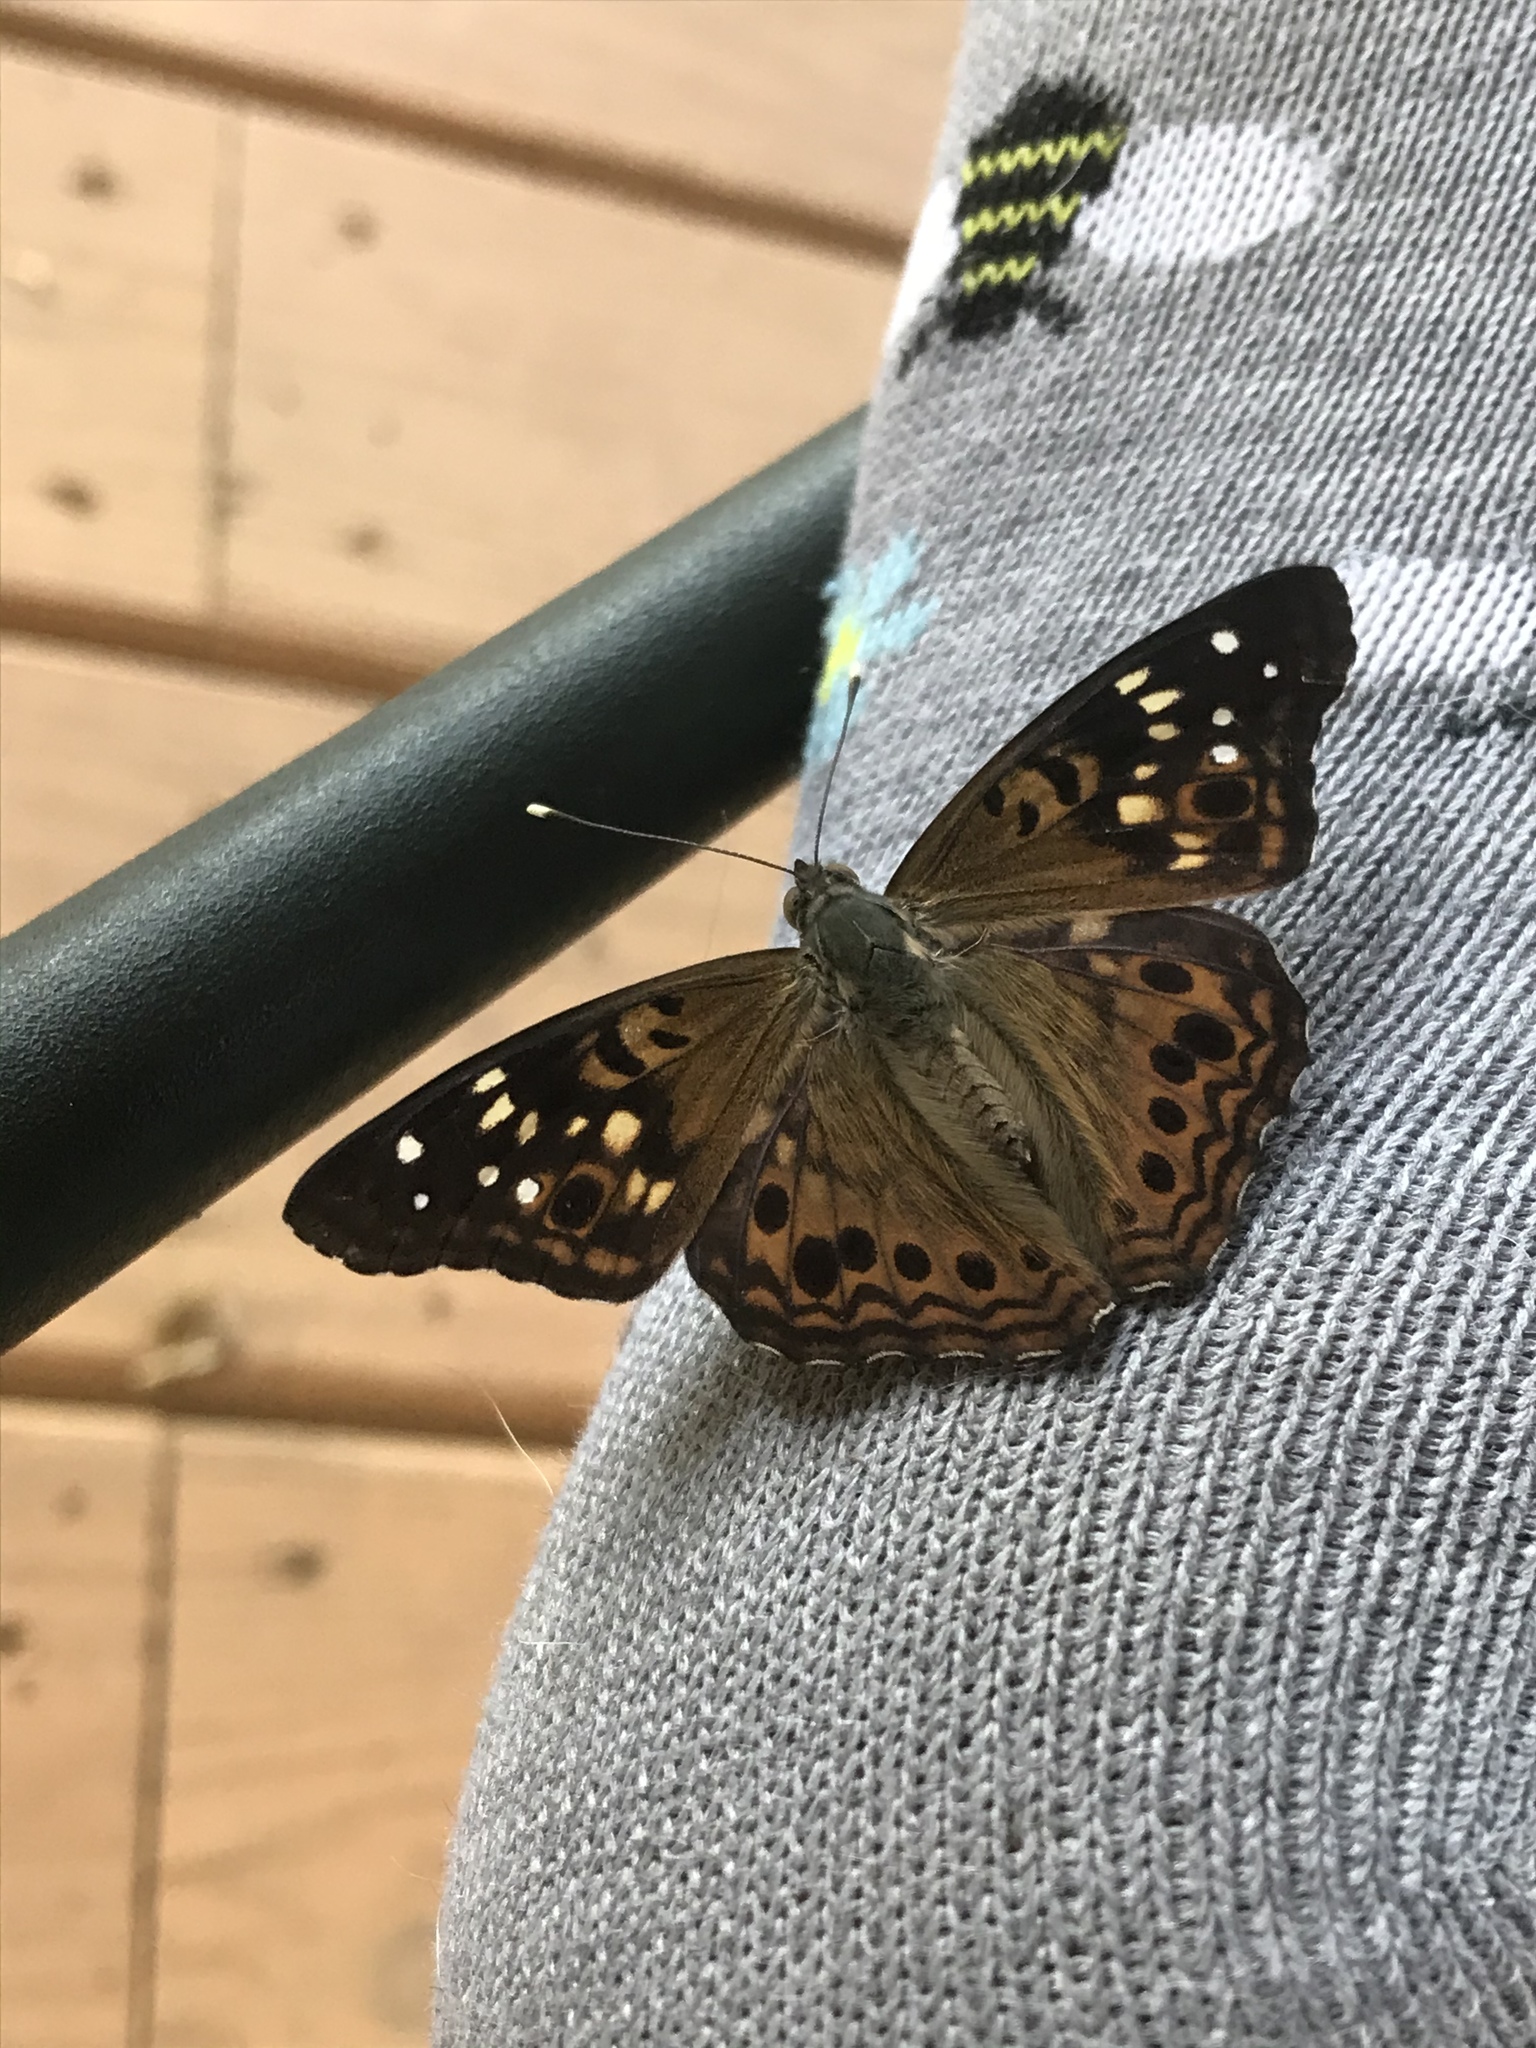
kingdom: Animalia
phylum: Arthropoda
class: Insecta
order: Lepidoptera
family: Nymphalidae
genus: Asterocampa
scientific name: Asterocampa celtis
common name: Hackberry emperor
